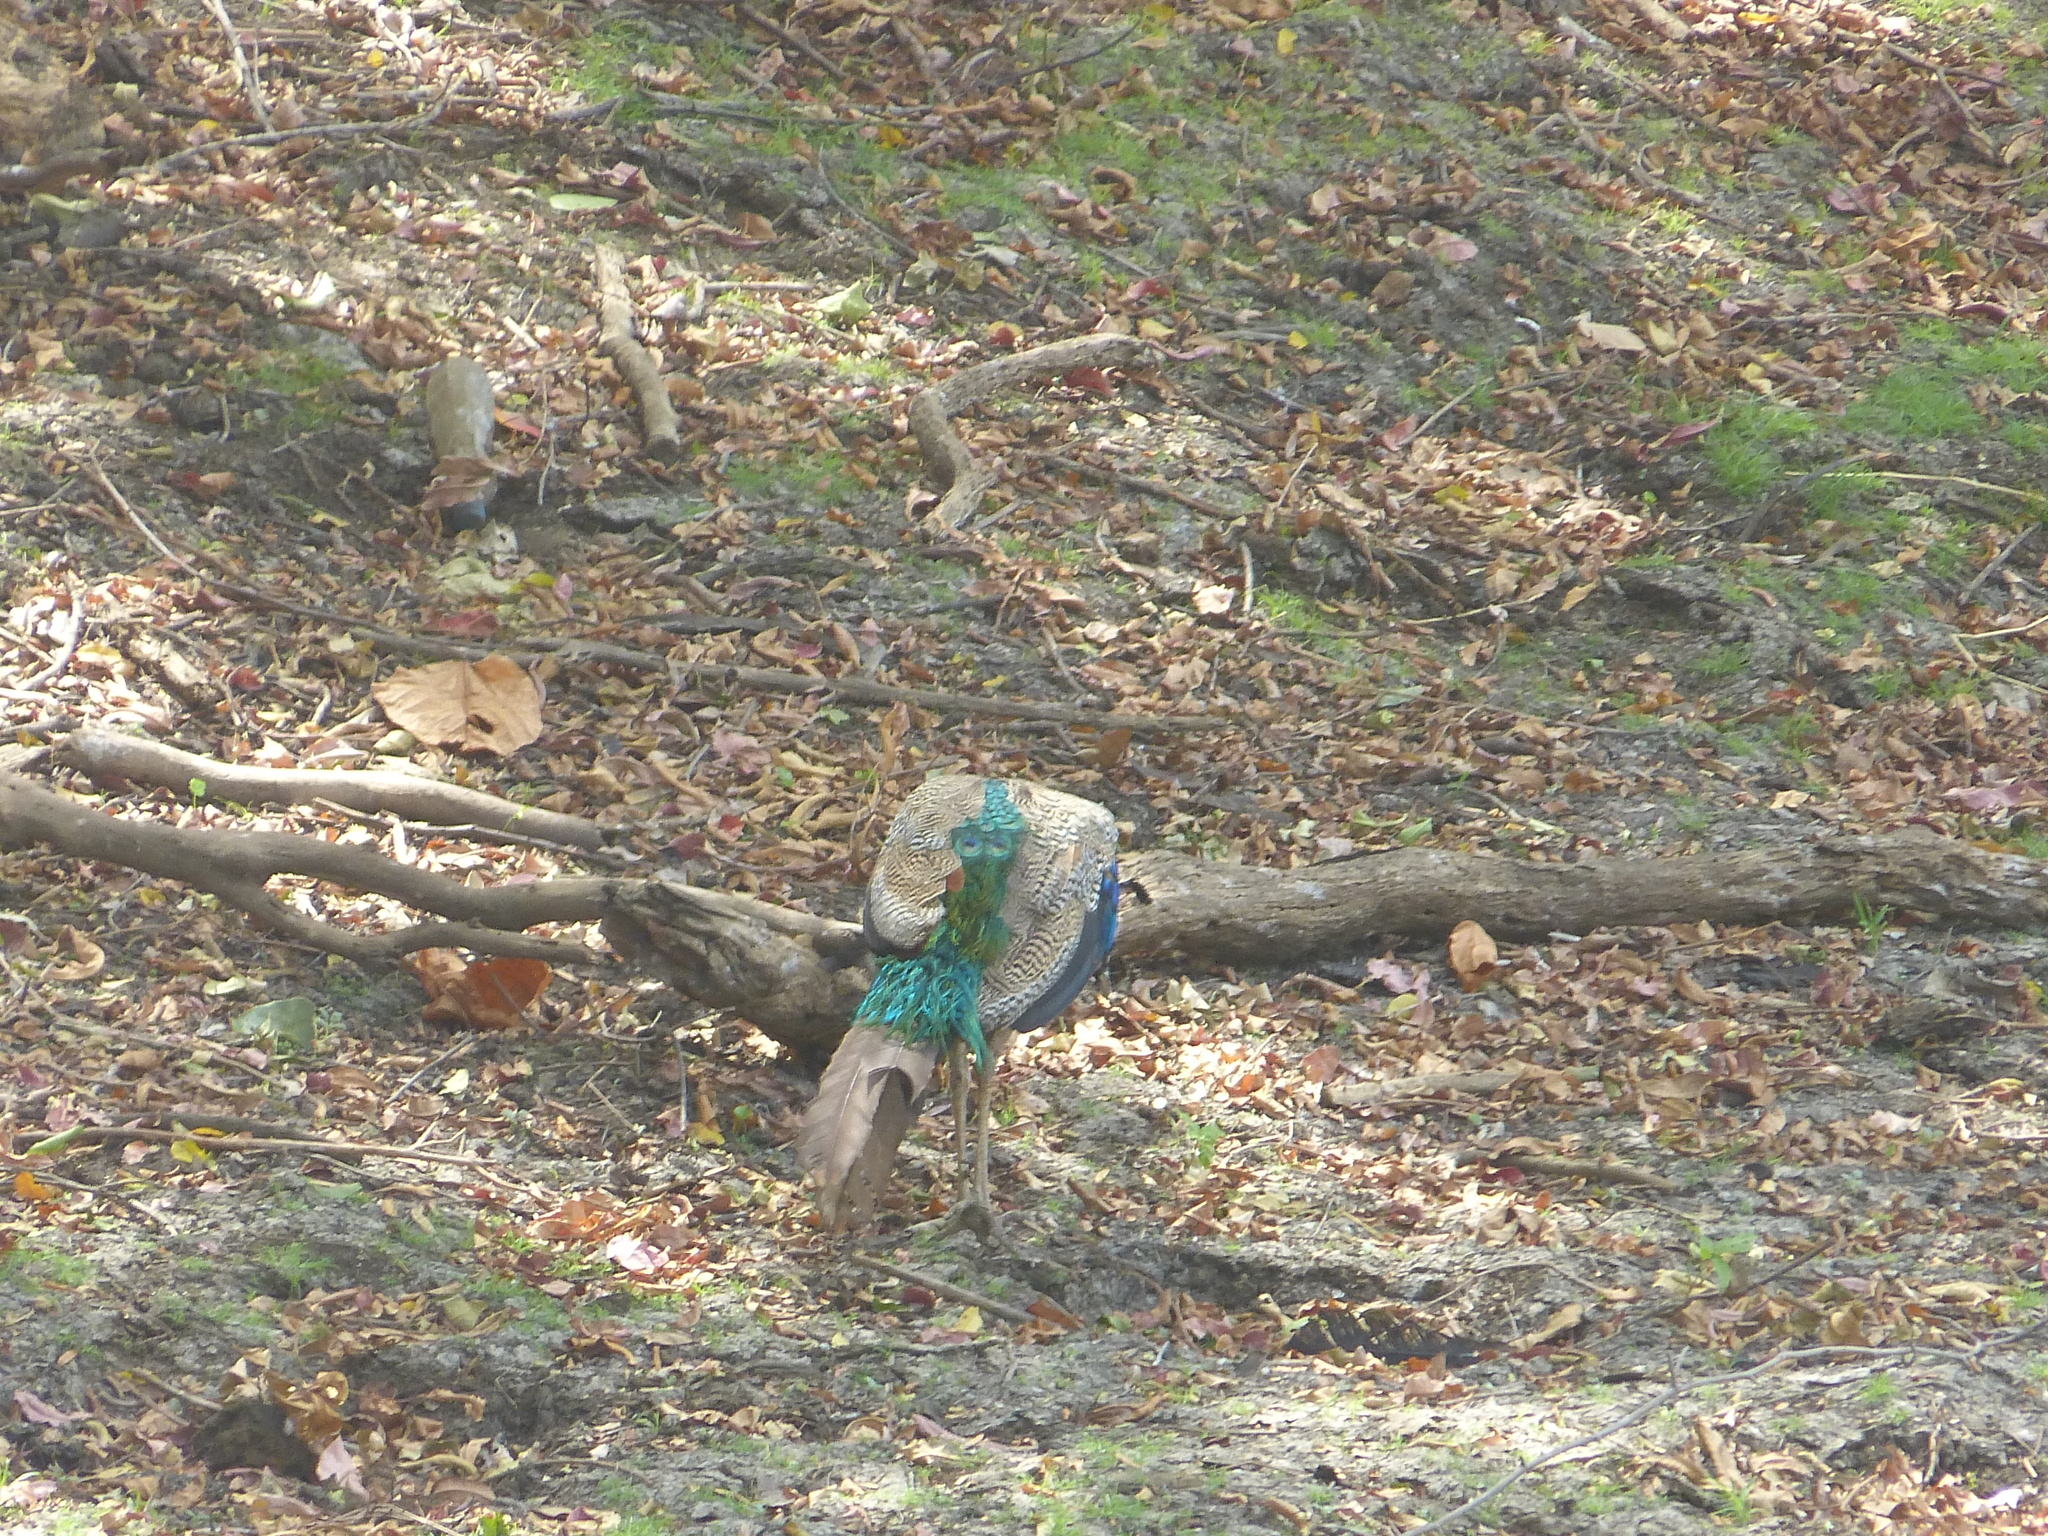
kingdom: Animalia
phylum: Chordata
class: Aves
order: Galliformes
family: Phasianidae
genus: Pavo
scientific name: Pavo cristatus
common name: Indian peafowl
